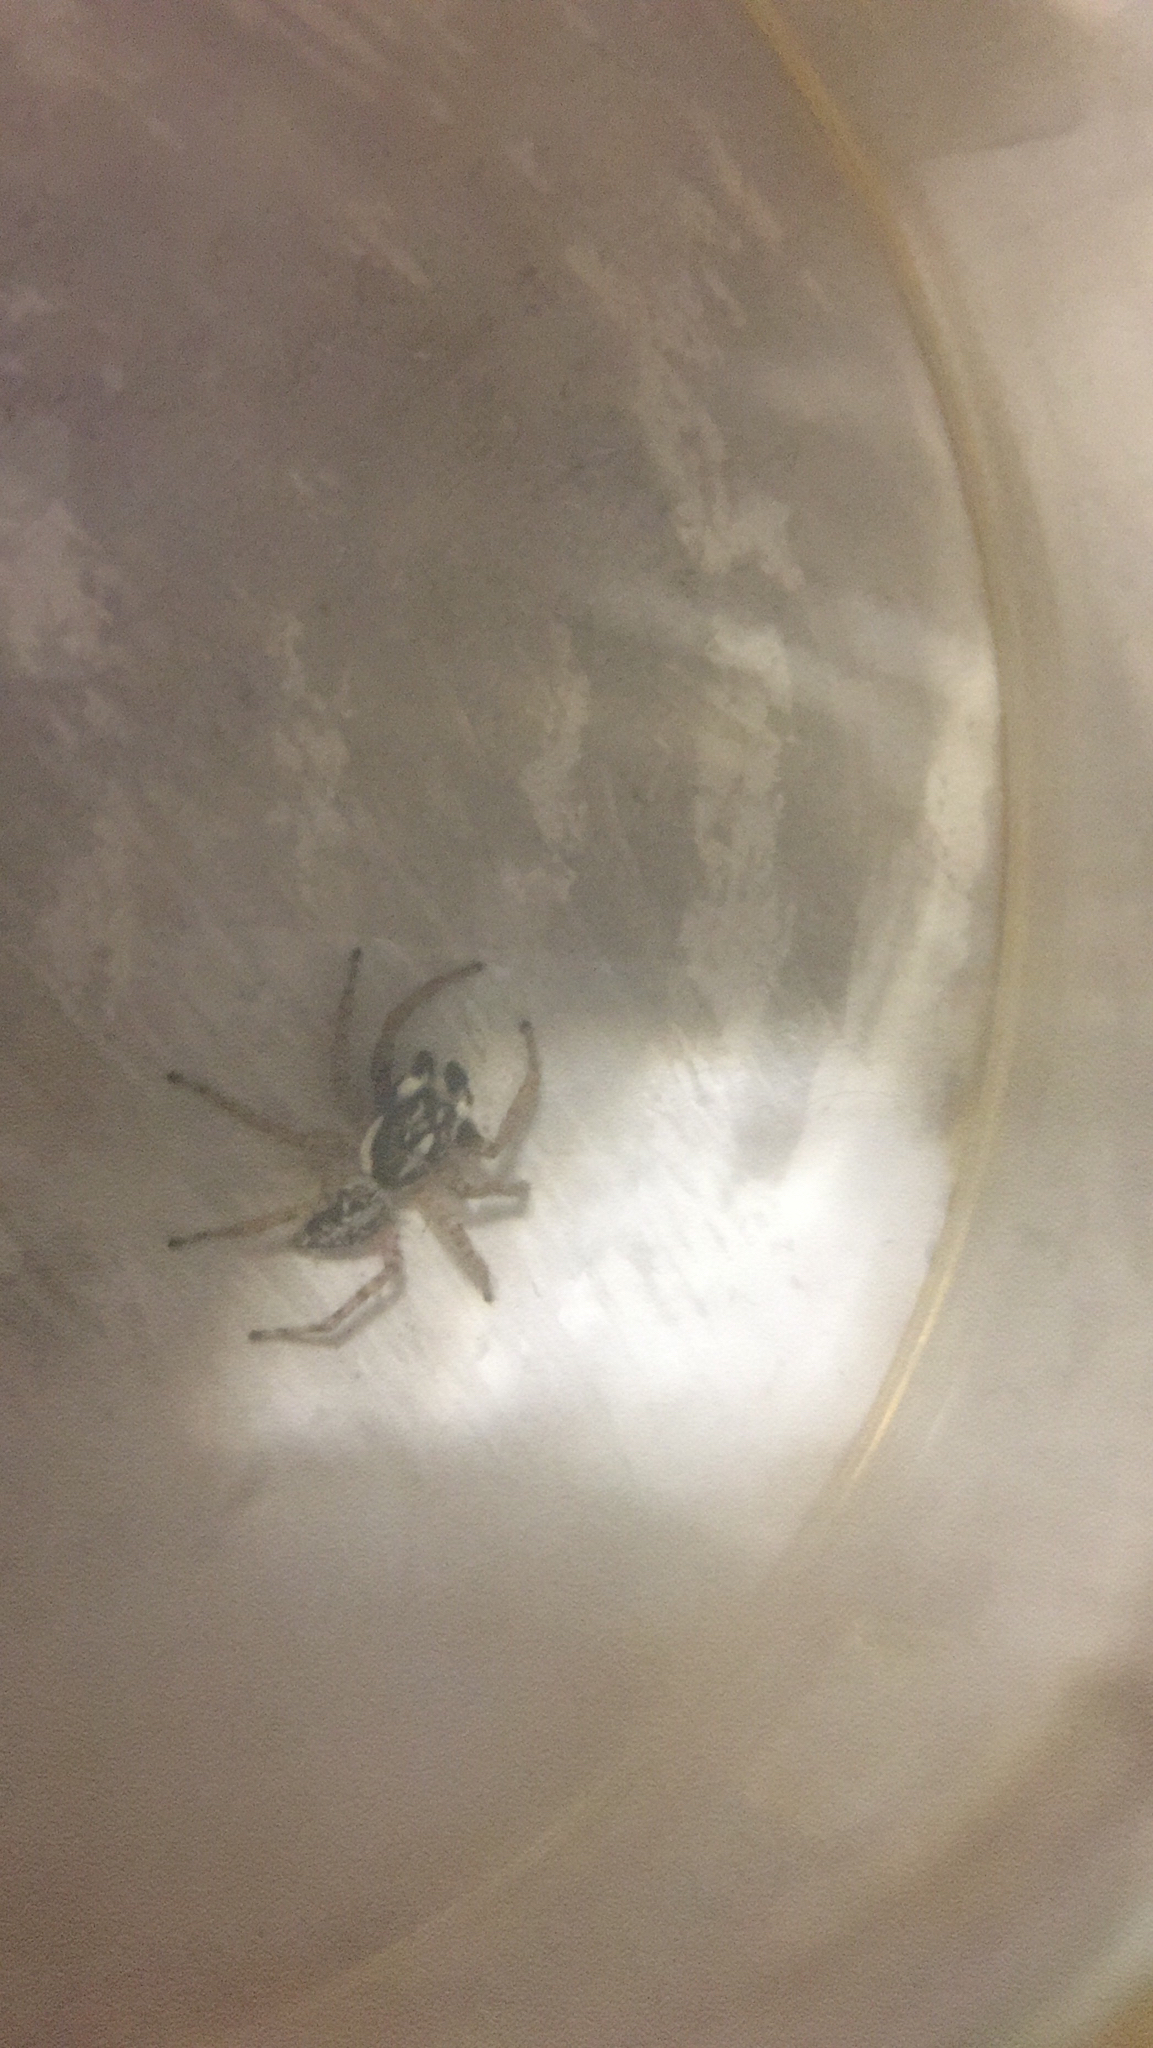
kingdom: Animalia
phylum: Arthropoda
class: Arachnida
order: Araneae
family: Salticidae
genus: Menemerus
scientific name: Menemerus semilimbatus
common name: Jumping spider
